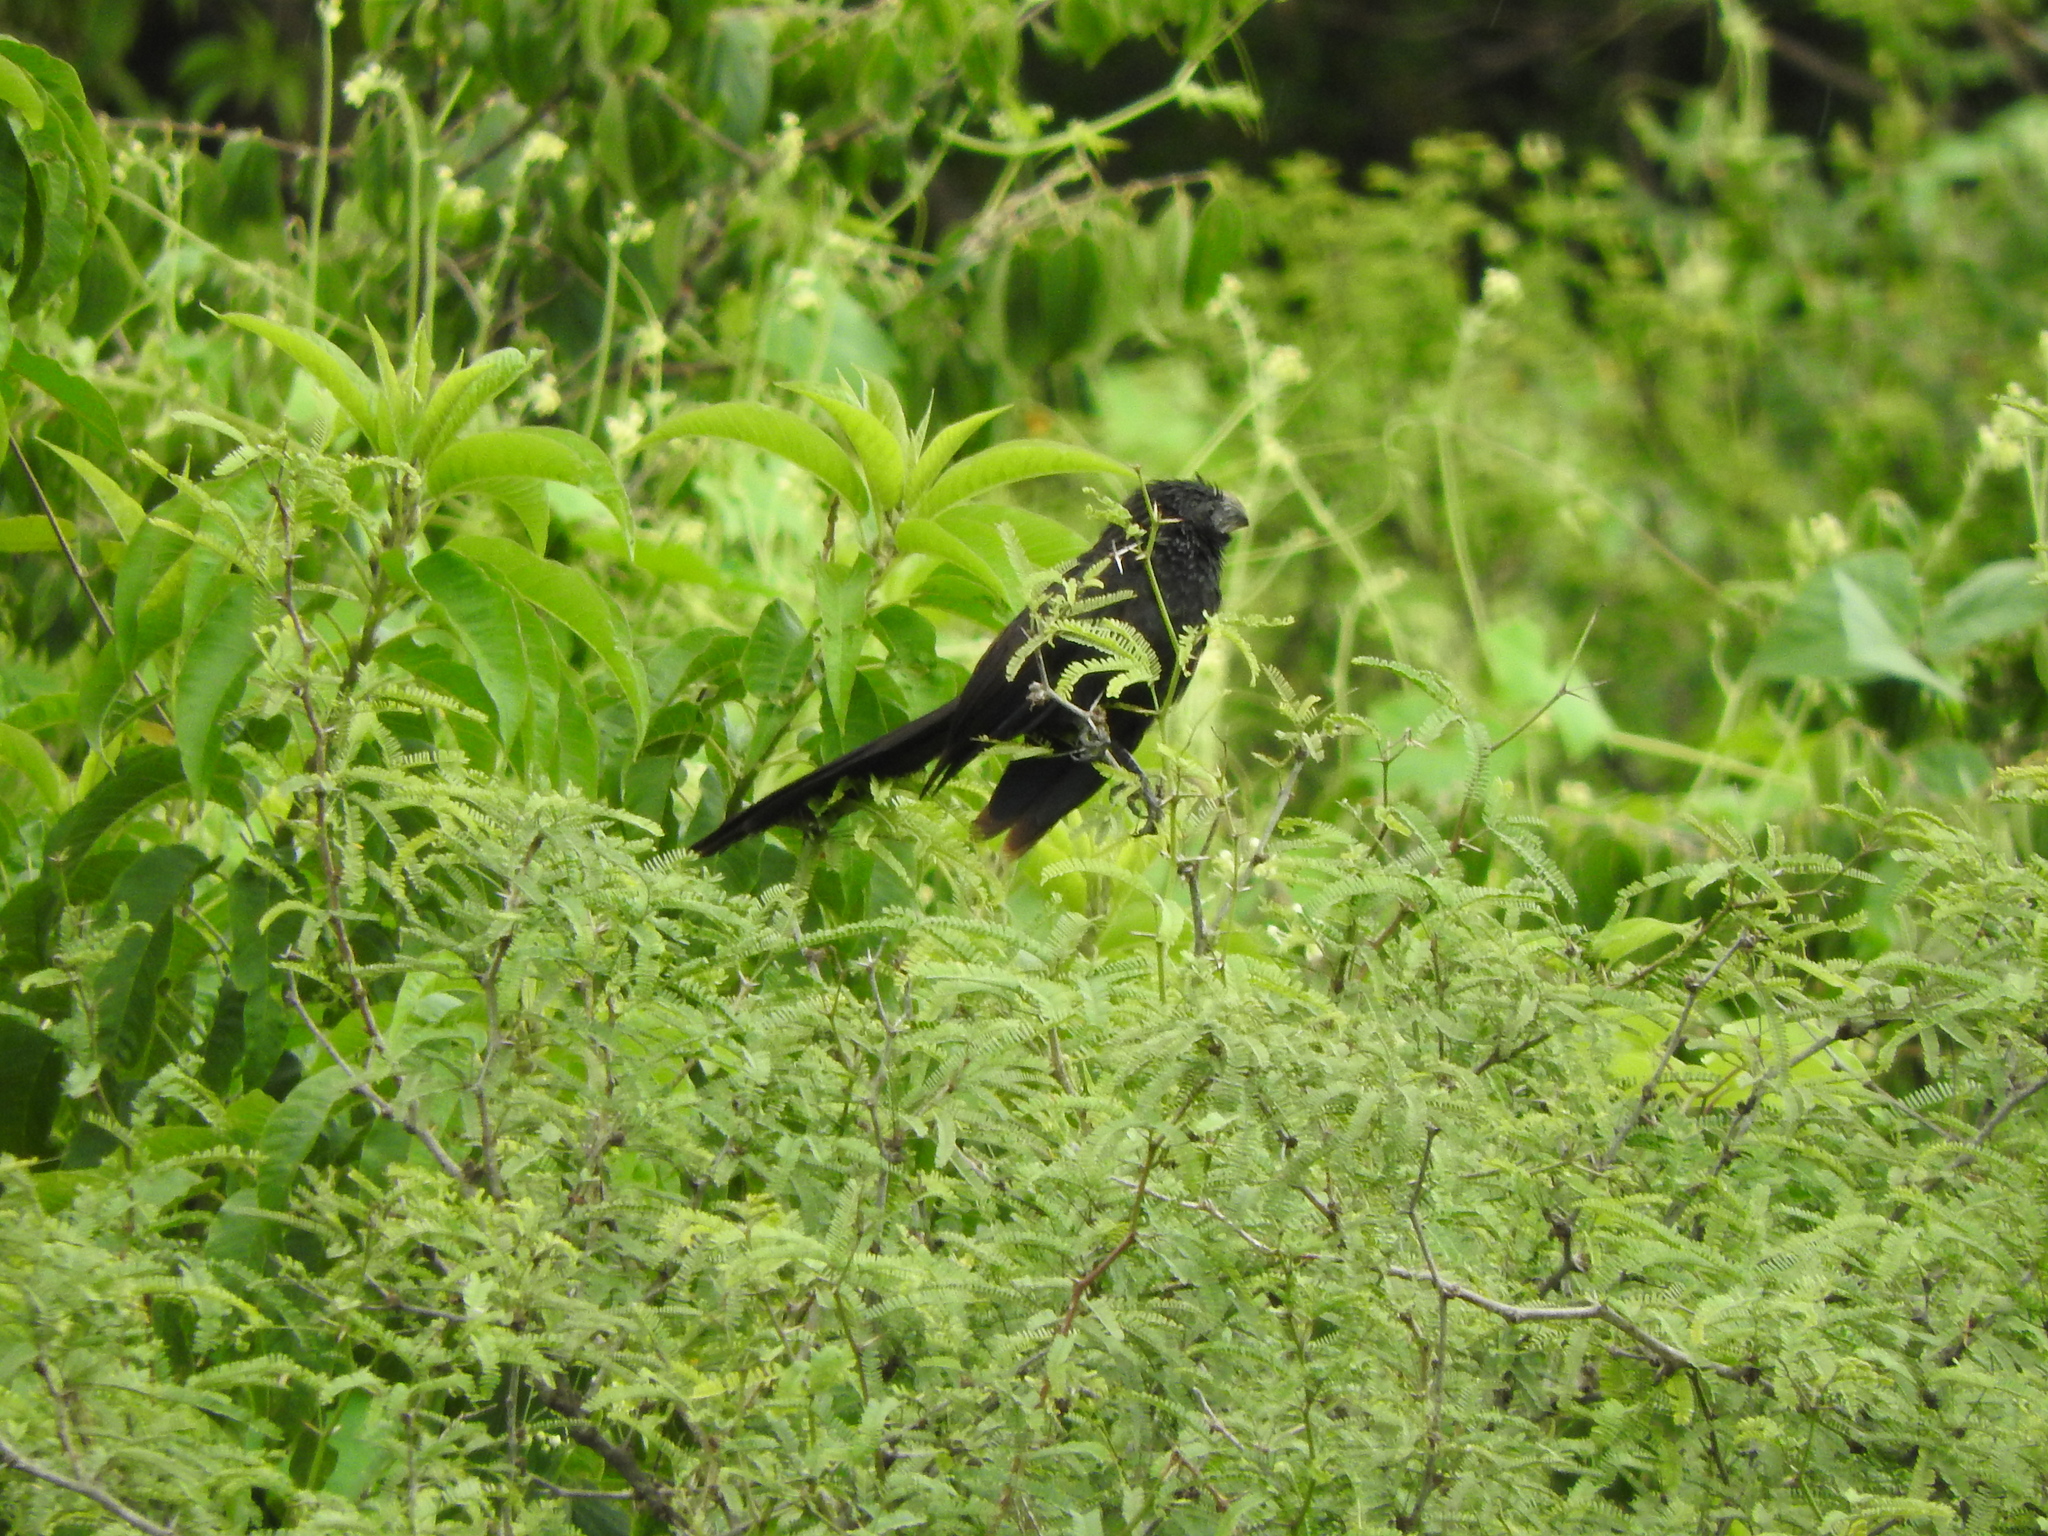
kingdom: Animalia
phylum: Chordata
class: Aves
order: Cuculiformes
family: Cuculidae
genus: Crotophaga
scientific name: Crotophaga sulcirostris
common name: Groove-billed ani
